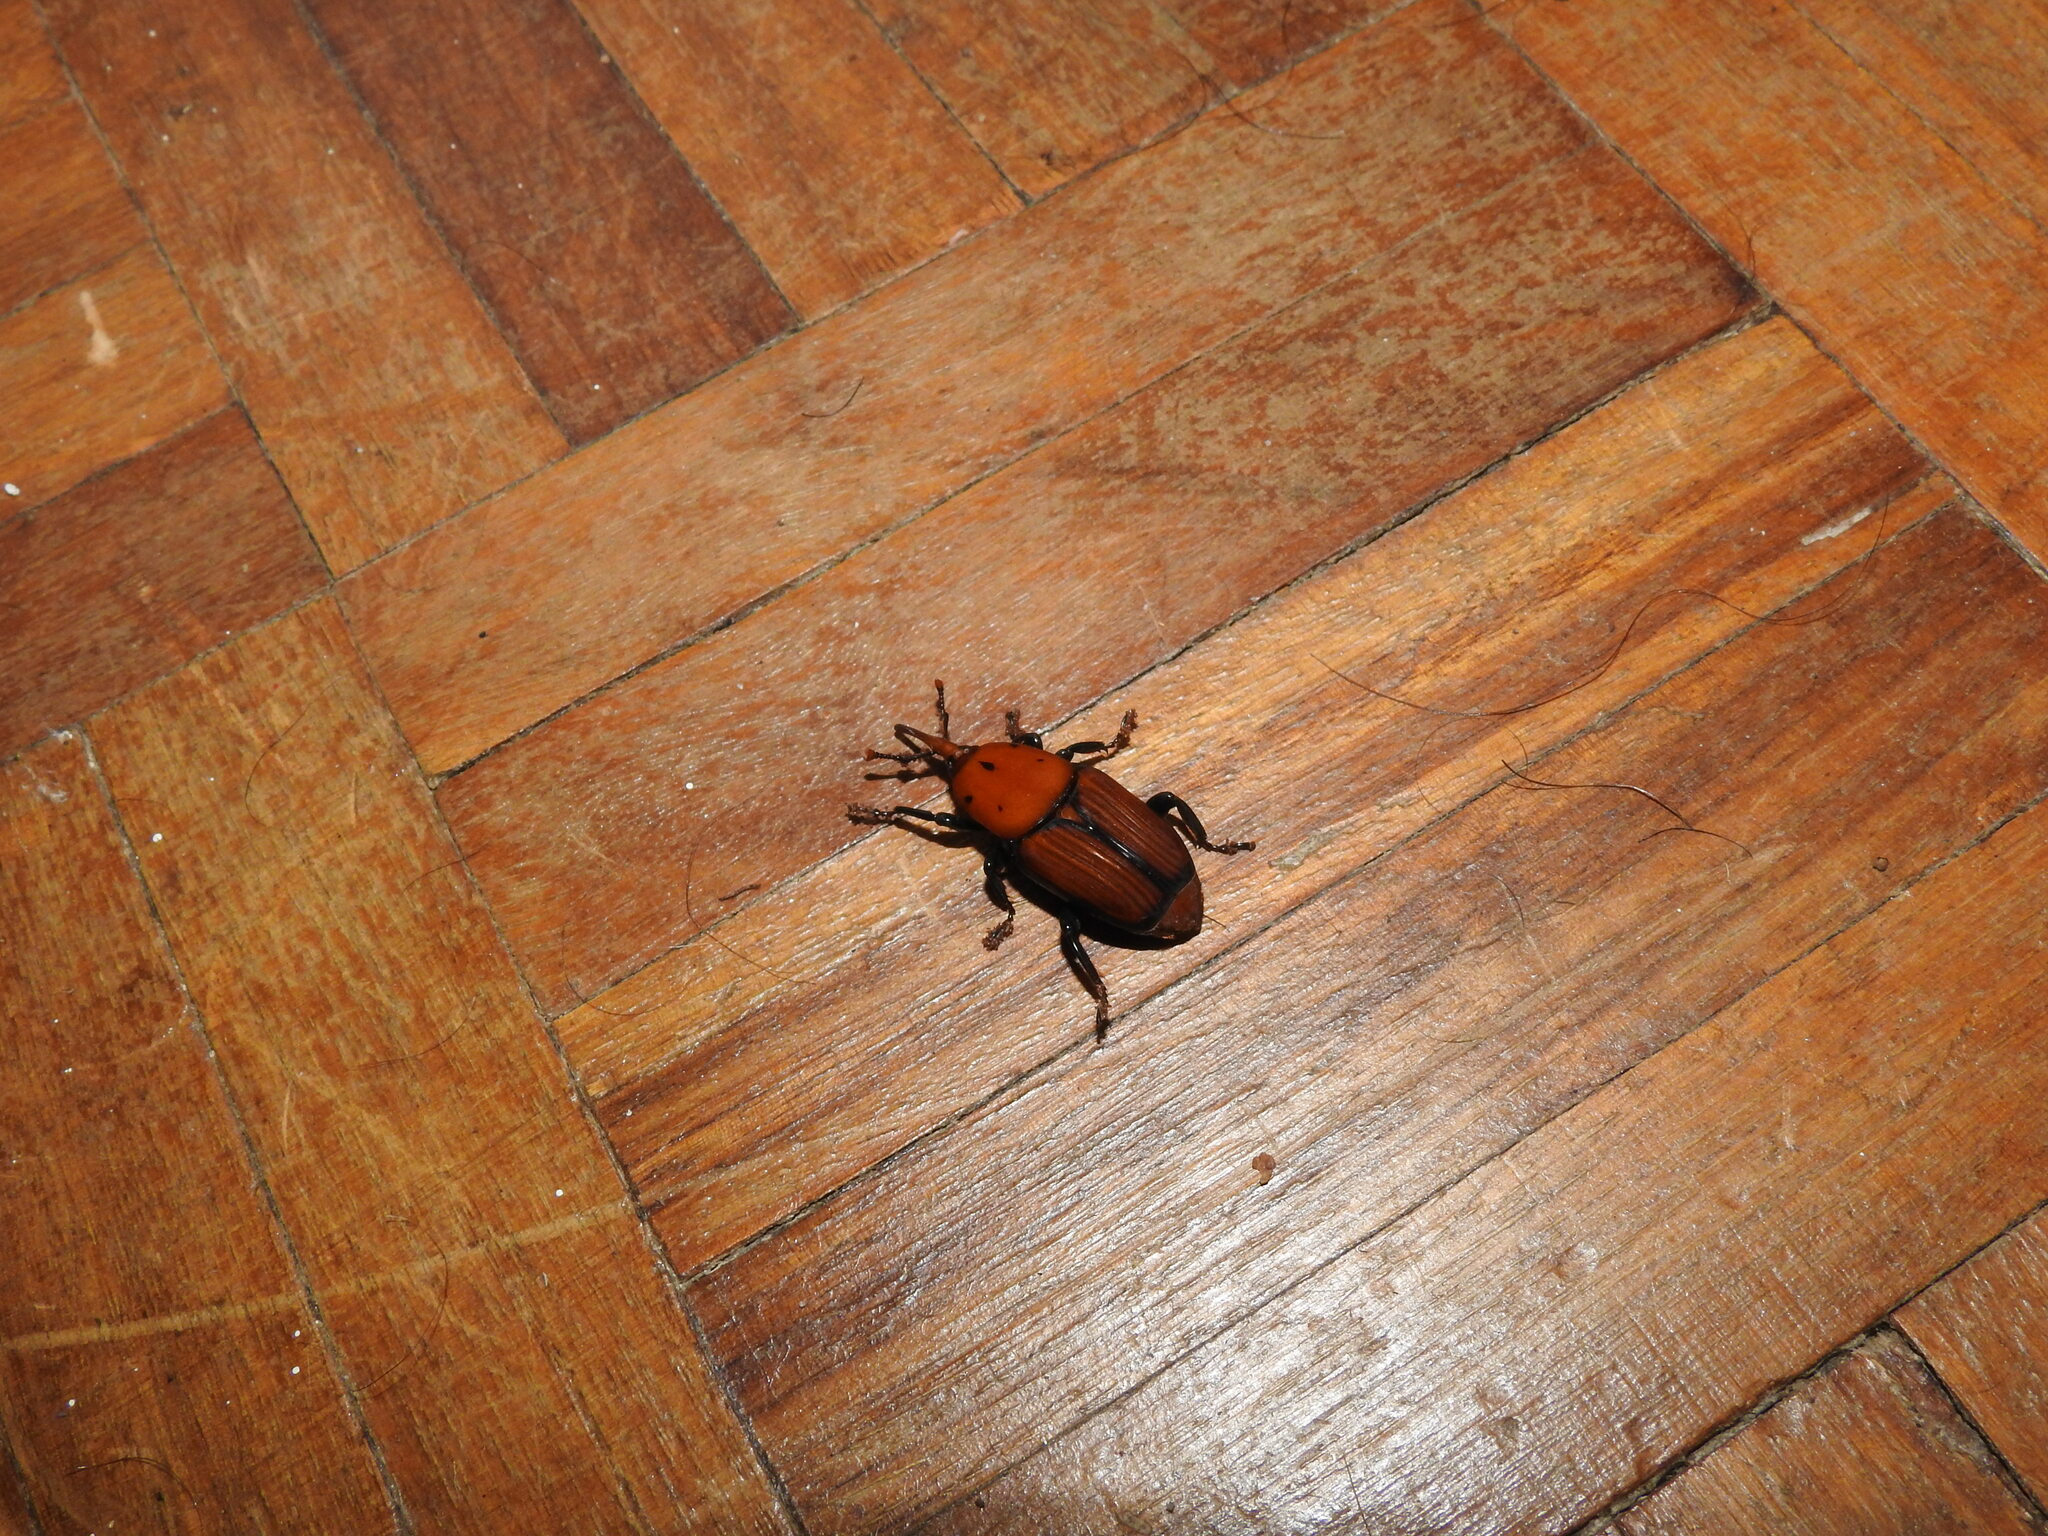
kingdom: Animalia
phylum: Arthropoda
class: Insecta
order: Coleoptera
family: Dryophthoridae
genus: Rhynchophorus
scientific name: Rhynchophorus ferrugineus
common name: Red palm weevil
